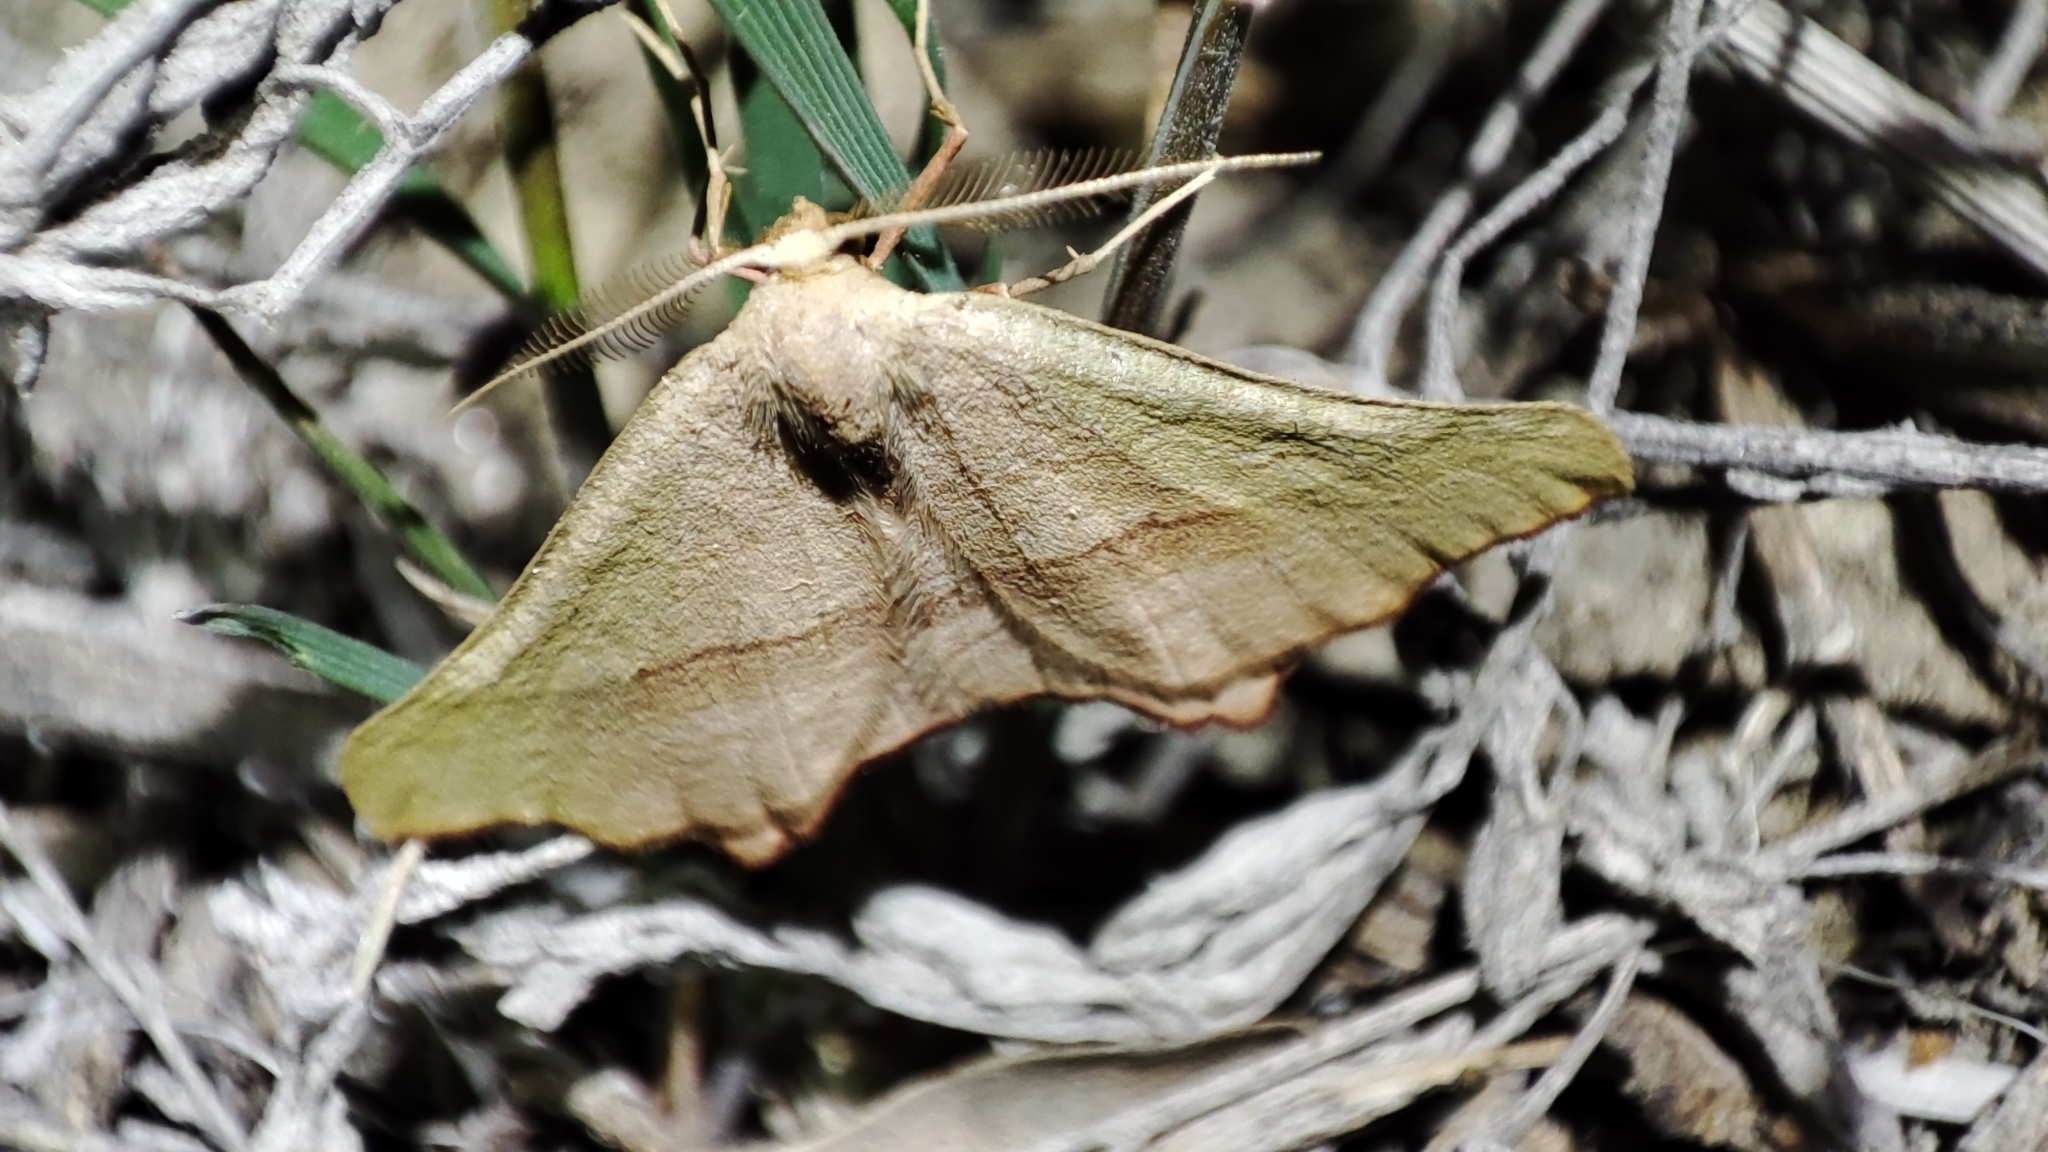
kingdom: Animalia
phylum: Arthropoda
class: Insecta
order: Lepidoptera
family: Geometridae
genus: Ochodontia
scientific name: Ochodontia adustaria
